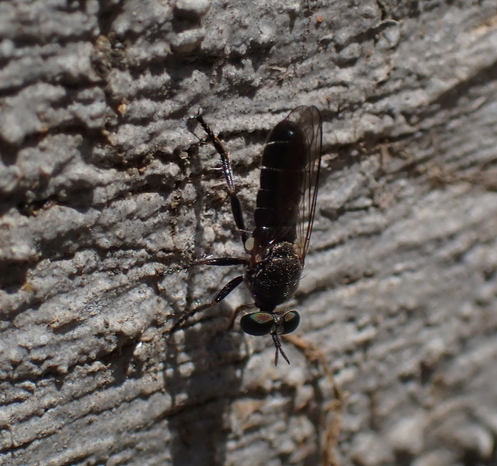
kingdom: Animalia
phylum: Arthropoda
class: Insecta
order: Diptera
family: Asilidae
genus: Atomosia
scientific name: Atomosia puella
